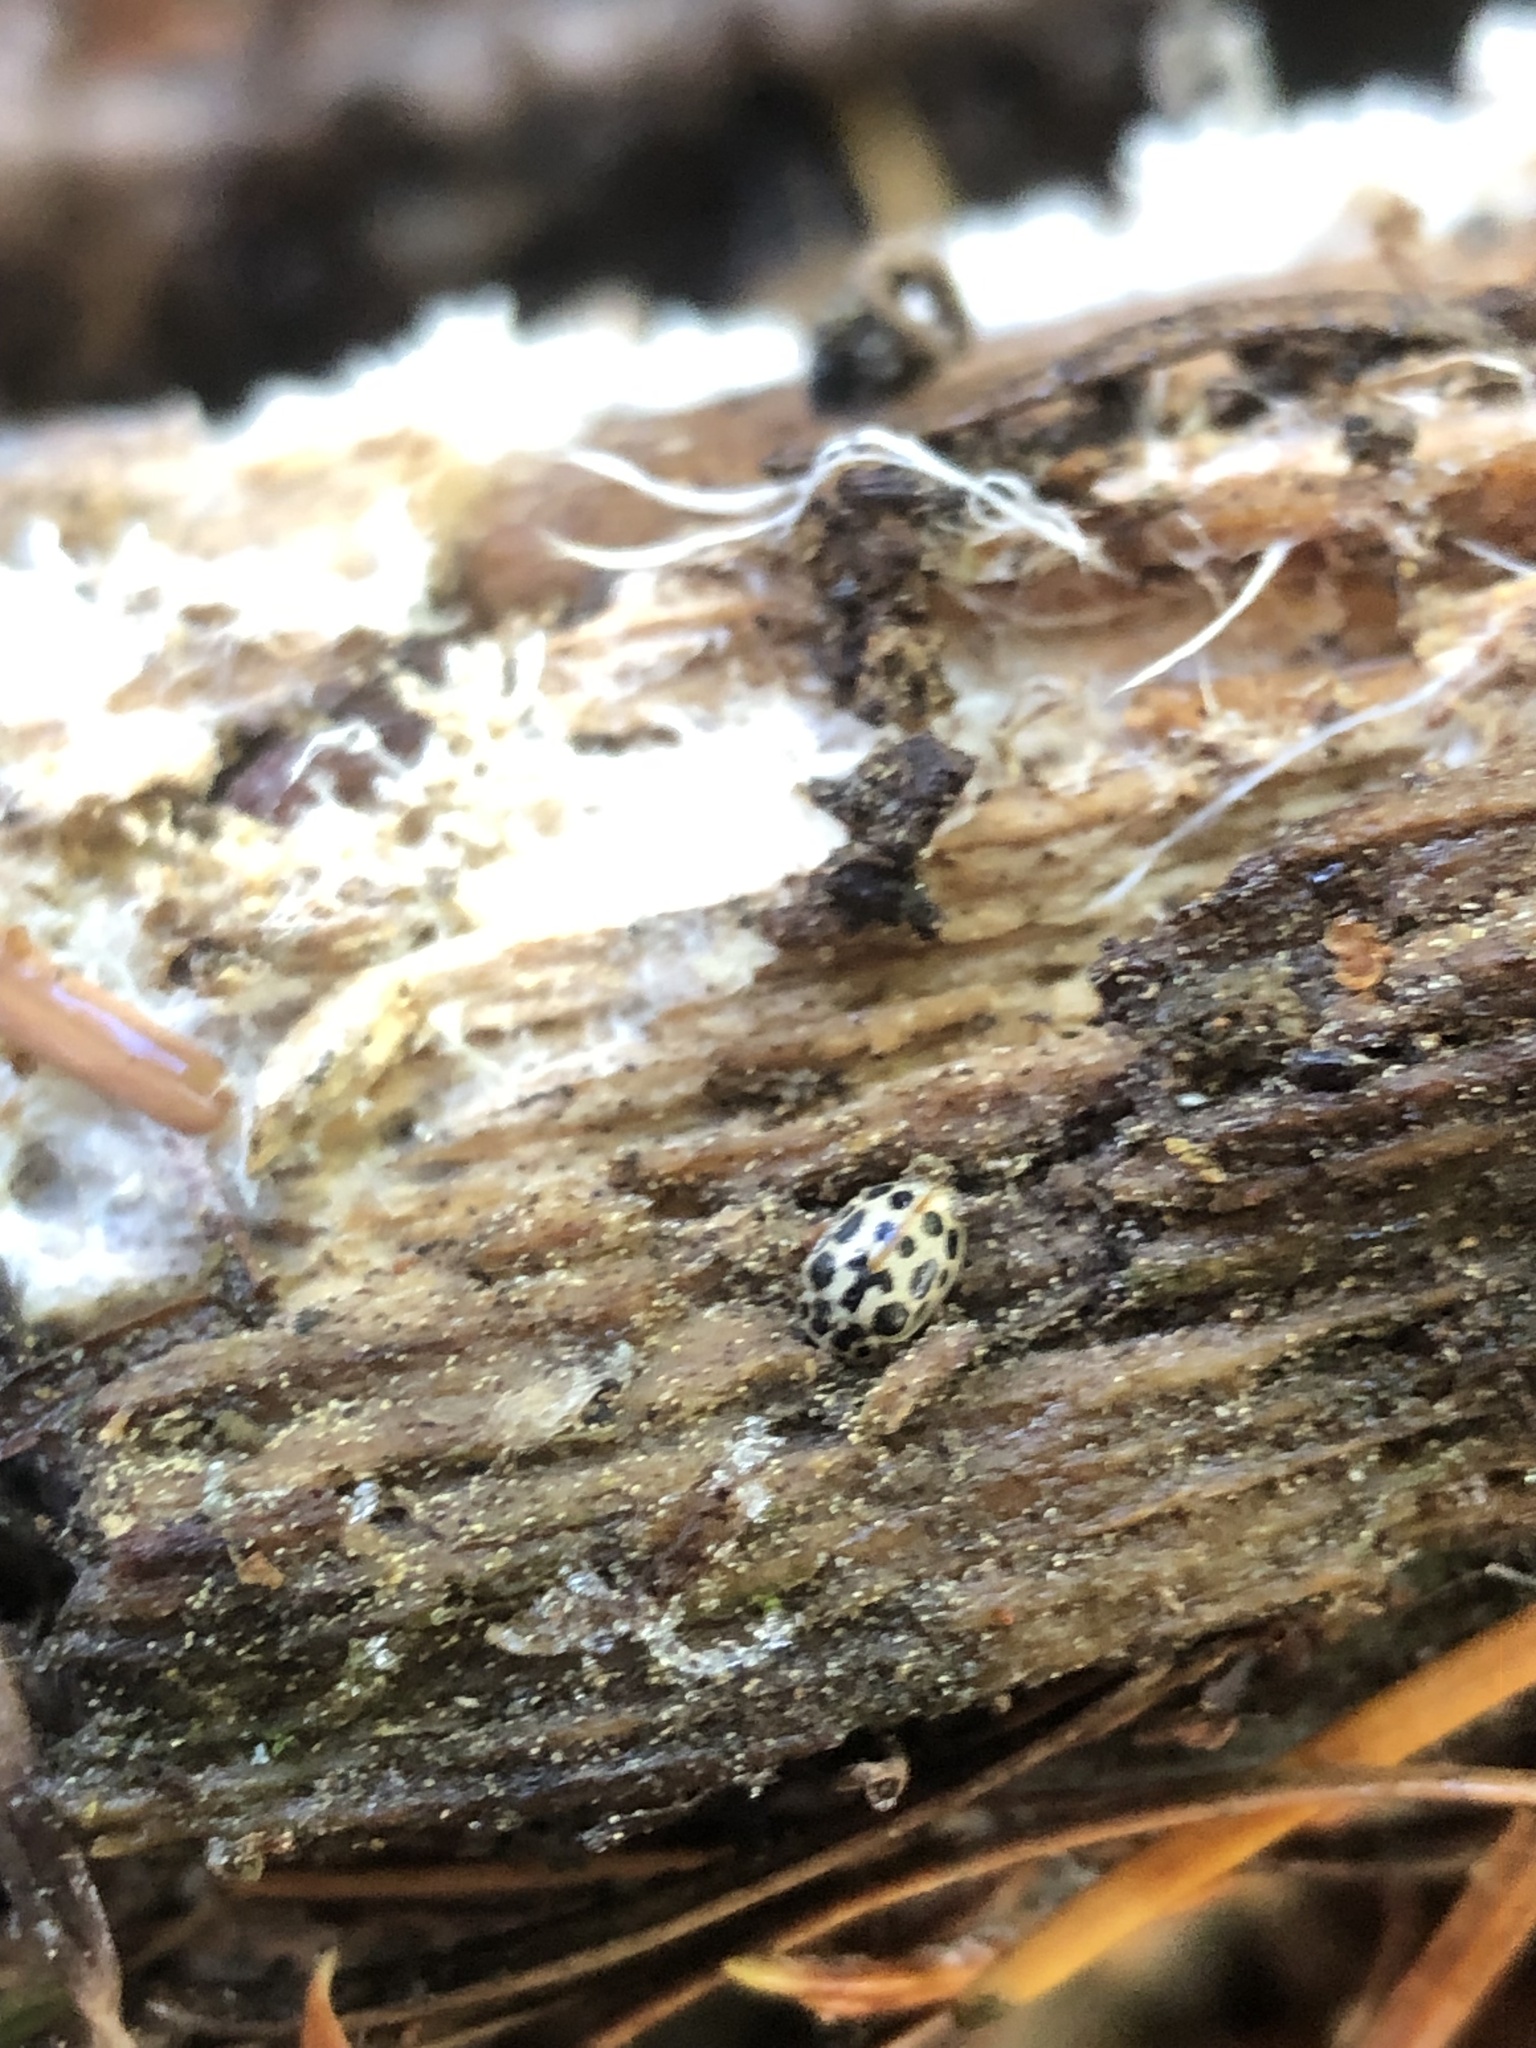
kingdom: Animalia
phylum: Arthropoda
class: Insecta
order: Coleoptera
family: Coccinellidae
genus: Anisosticta
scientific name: Anisosticta bitriangularis
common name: Marsh lady beetle
